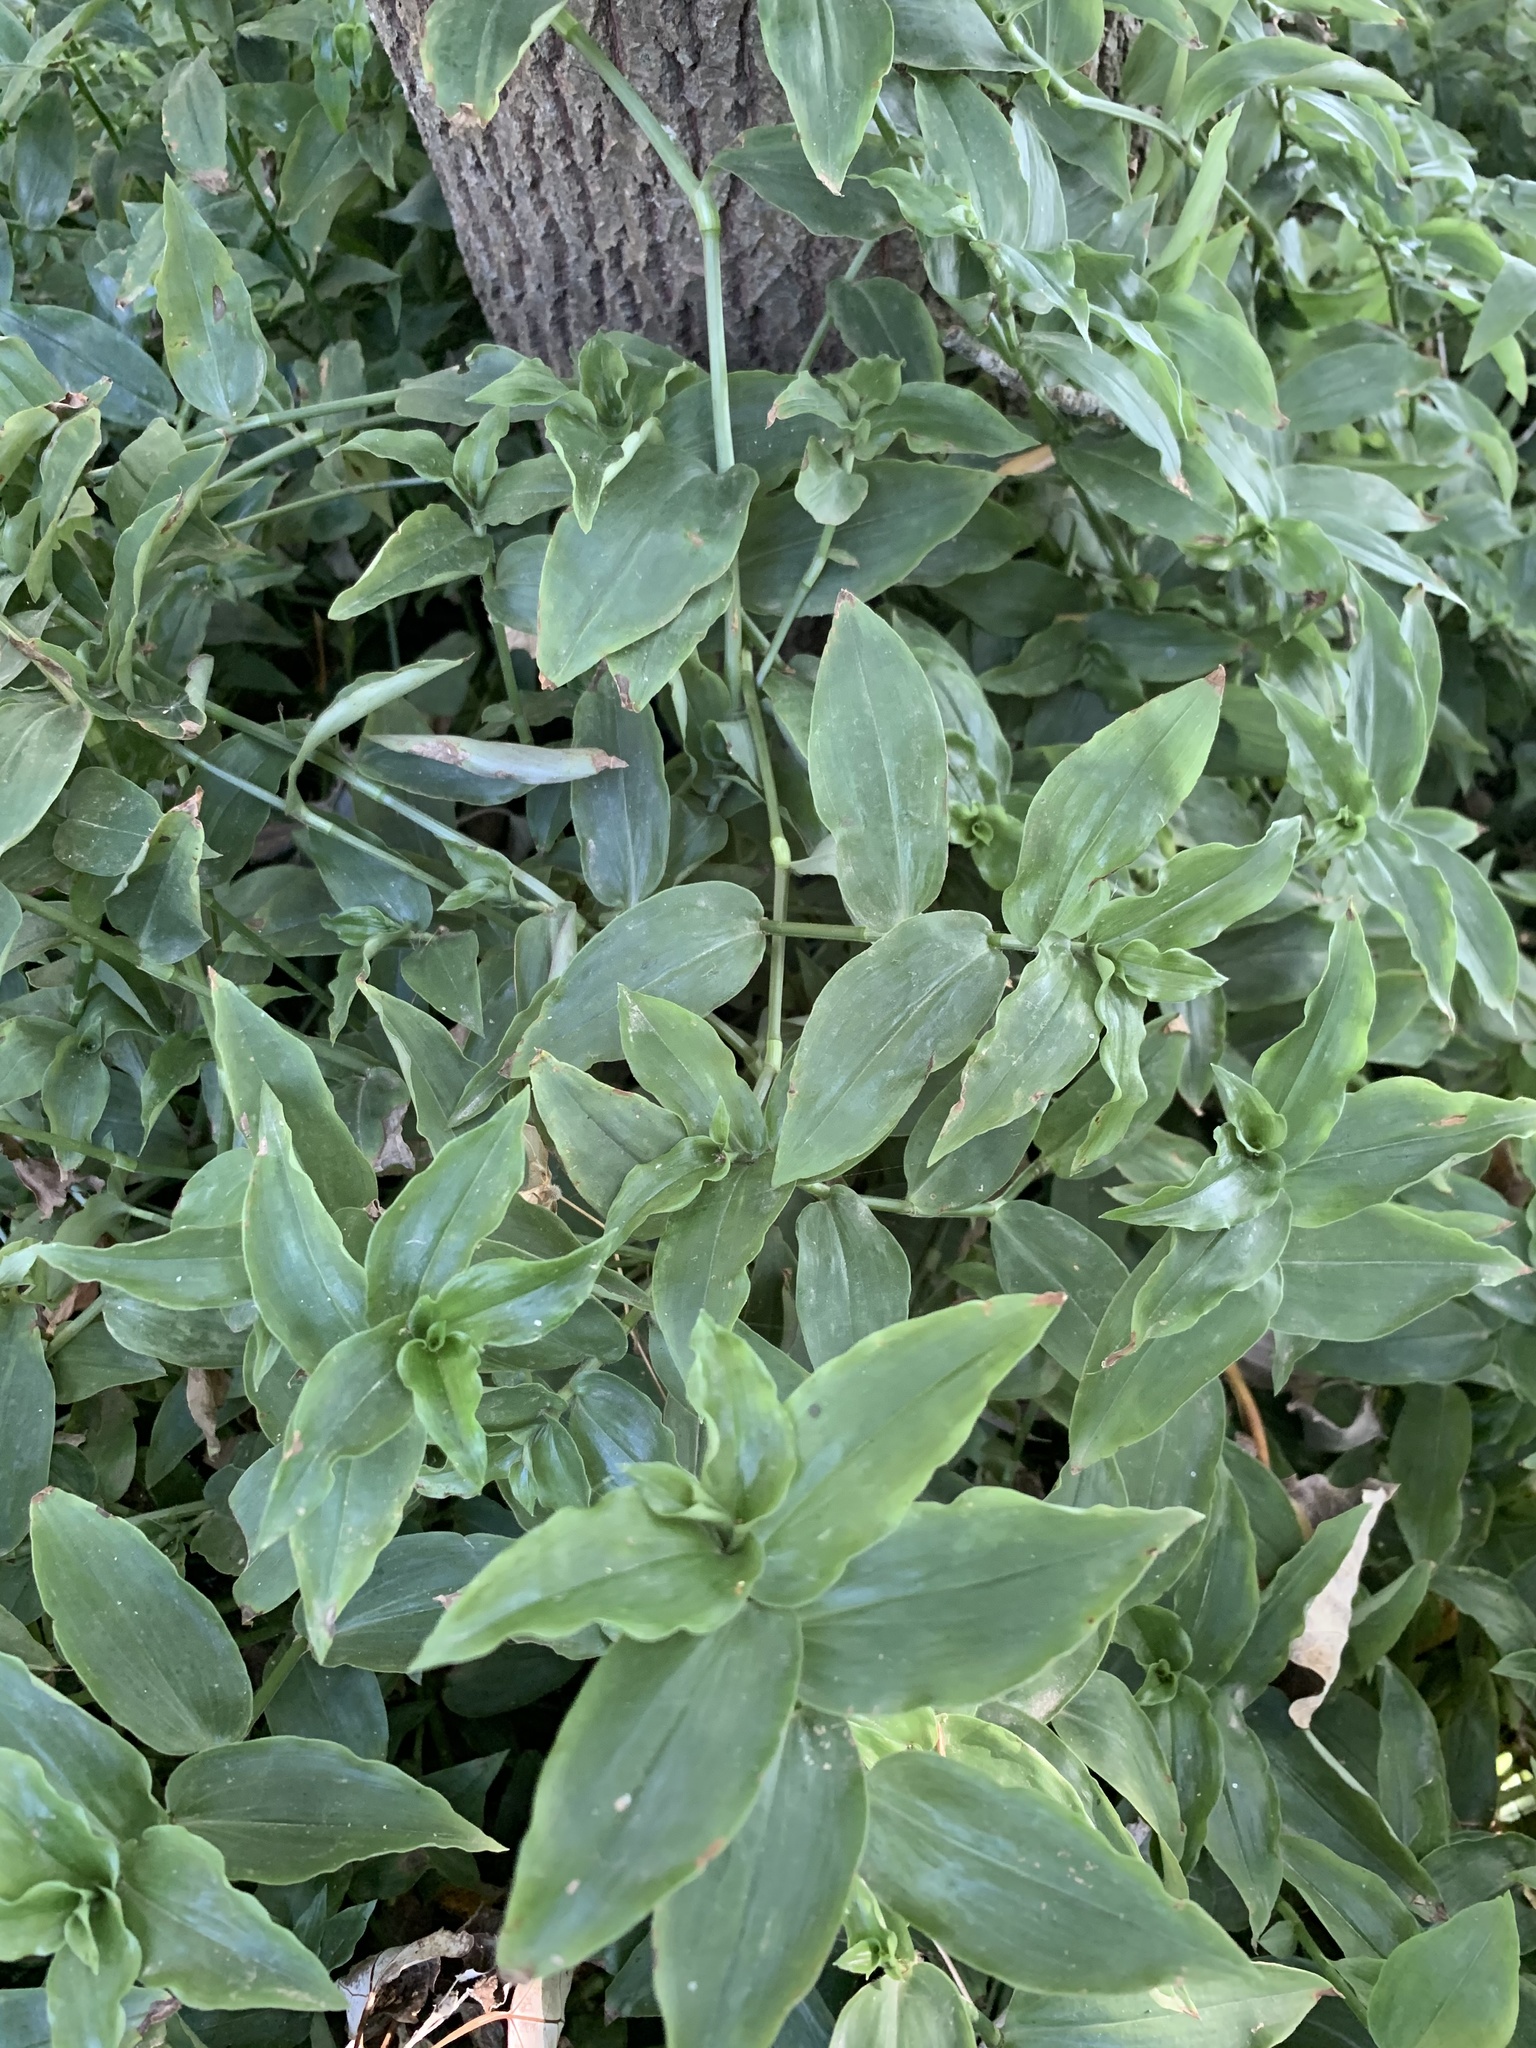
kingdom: Plantae
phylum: Tracheophyta
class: Liliopsida
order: Commelinales
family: Commelinaceae
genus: Tradescantia
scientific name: Tradescantia fluminensis
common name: Wandering-jew
